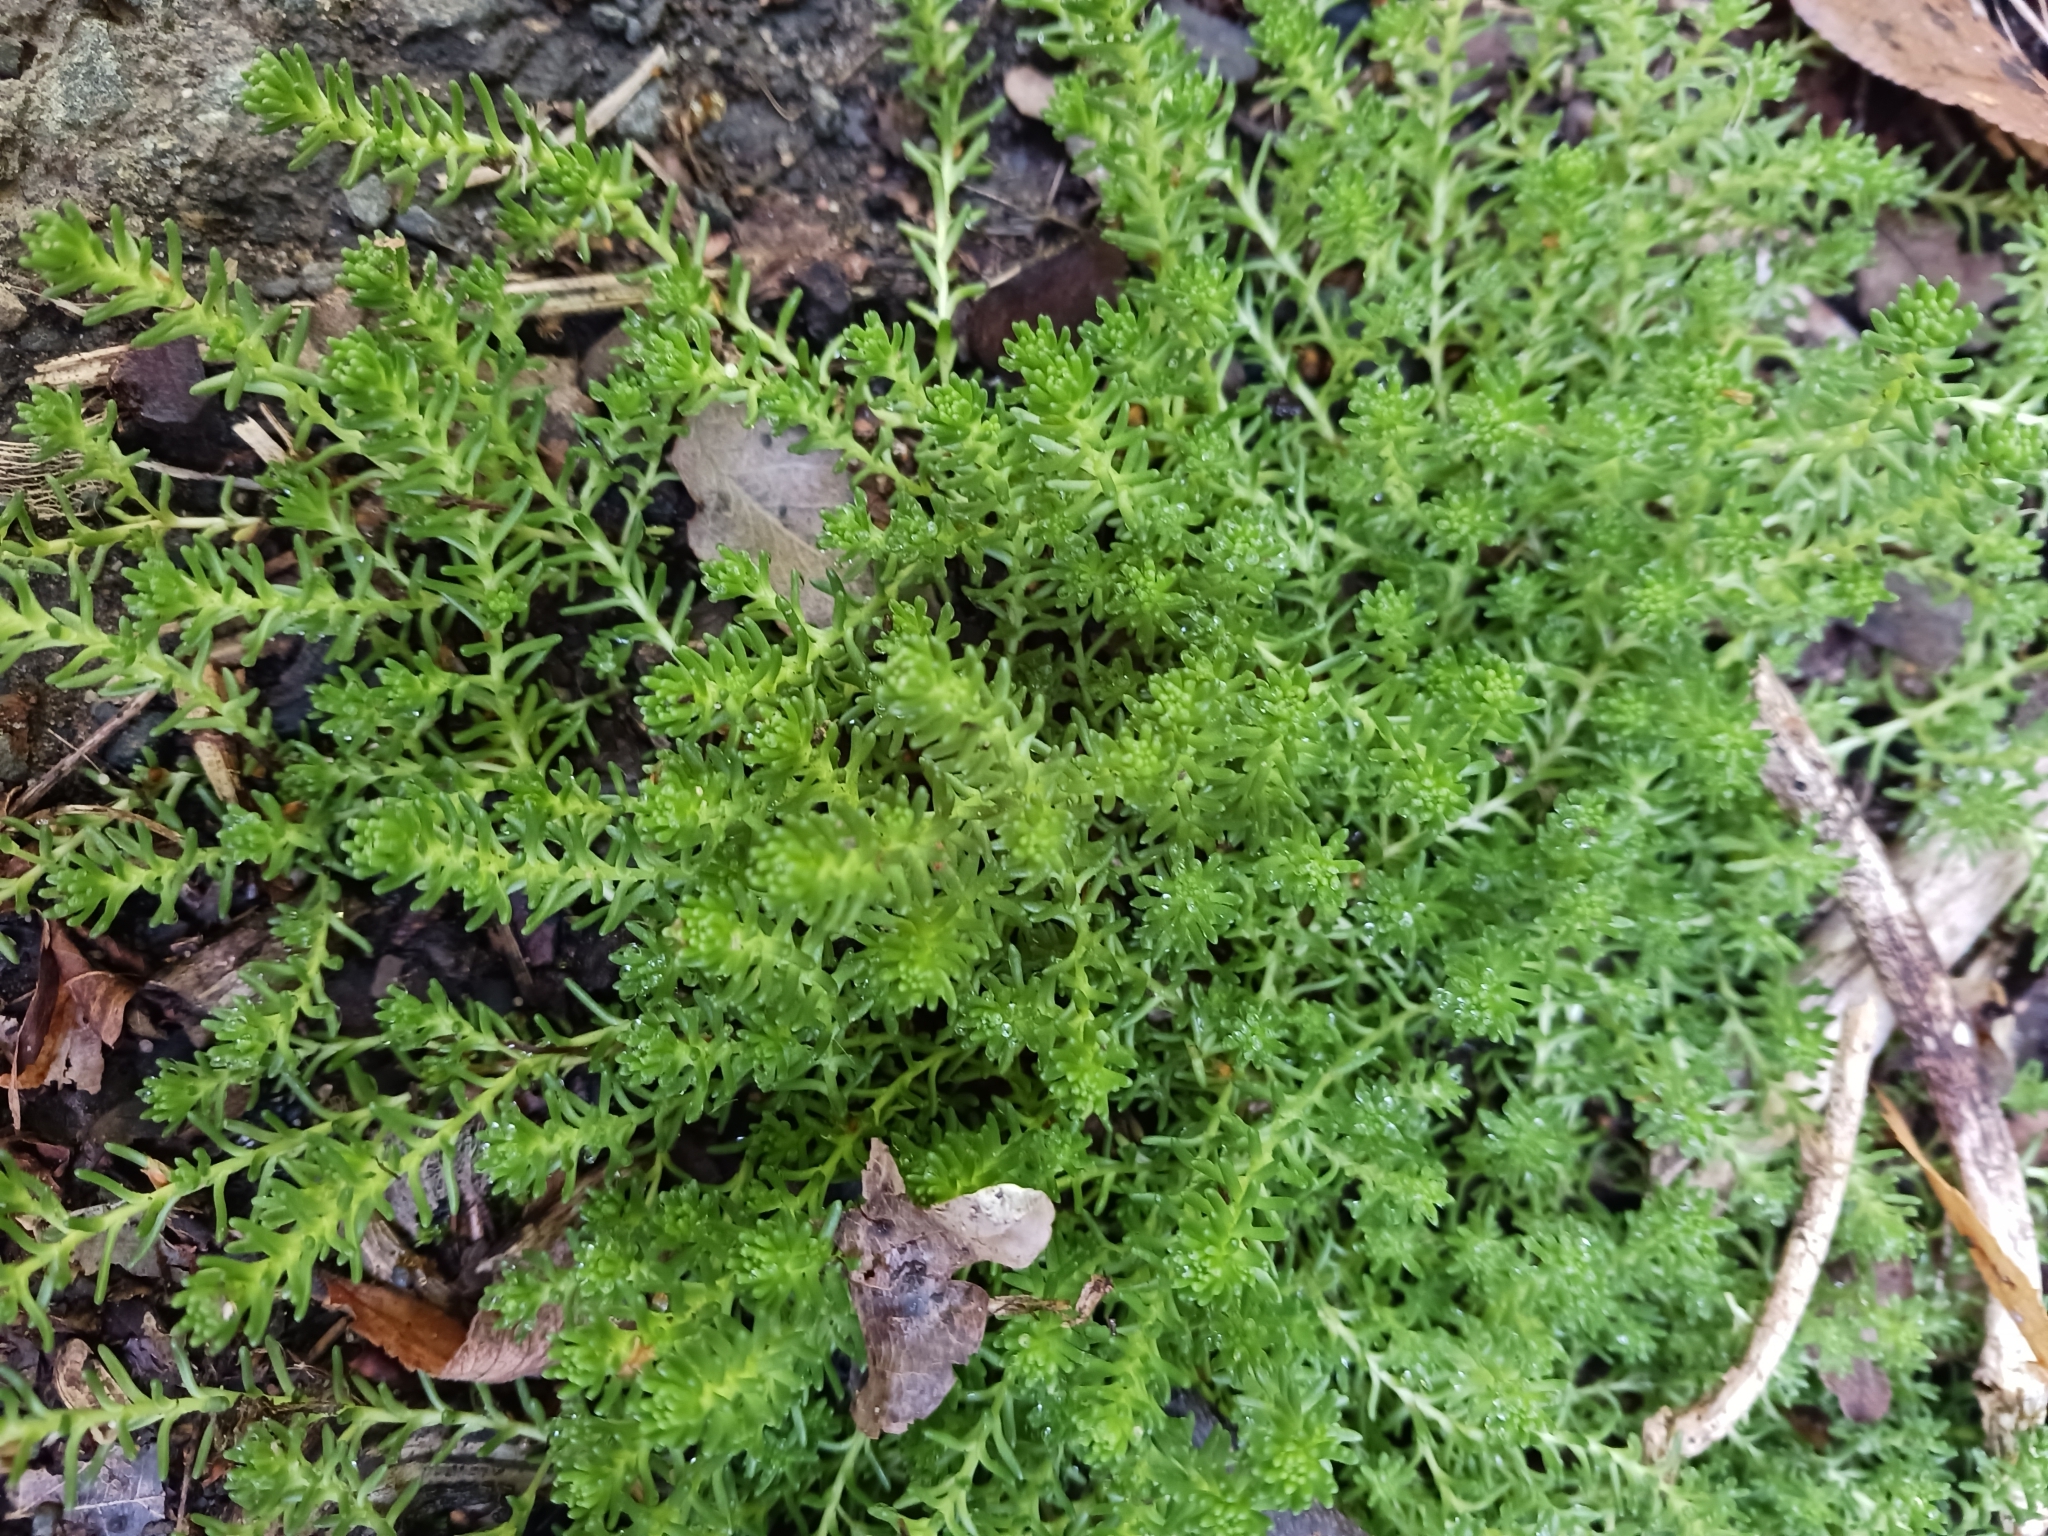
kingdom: Plantae
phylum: Tracheophyta
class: Magnoliopsida
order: Saxifragales
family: Crassulaceae
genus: Sedum
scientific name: Sedum sexangulare
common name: Tasteless stonecrop
